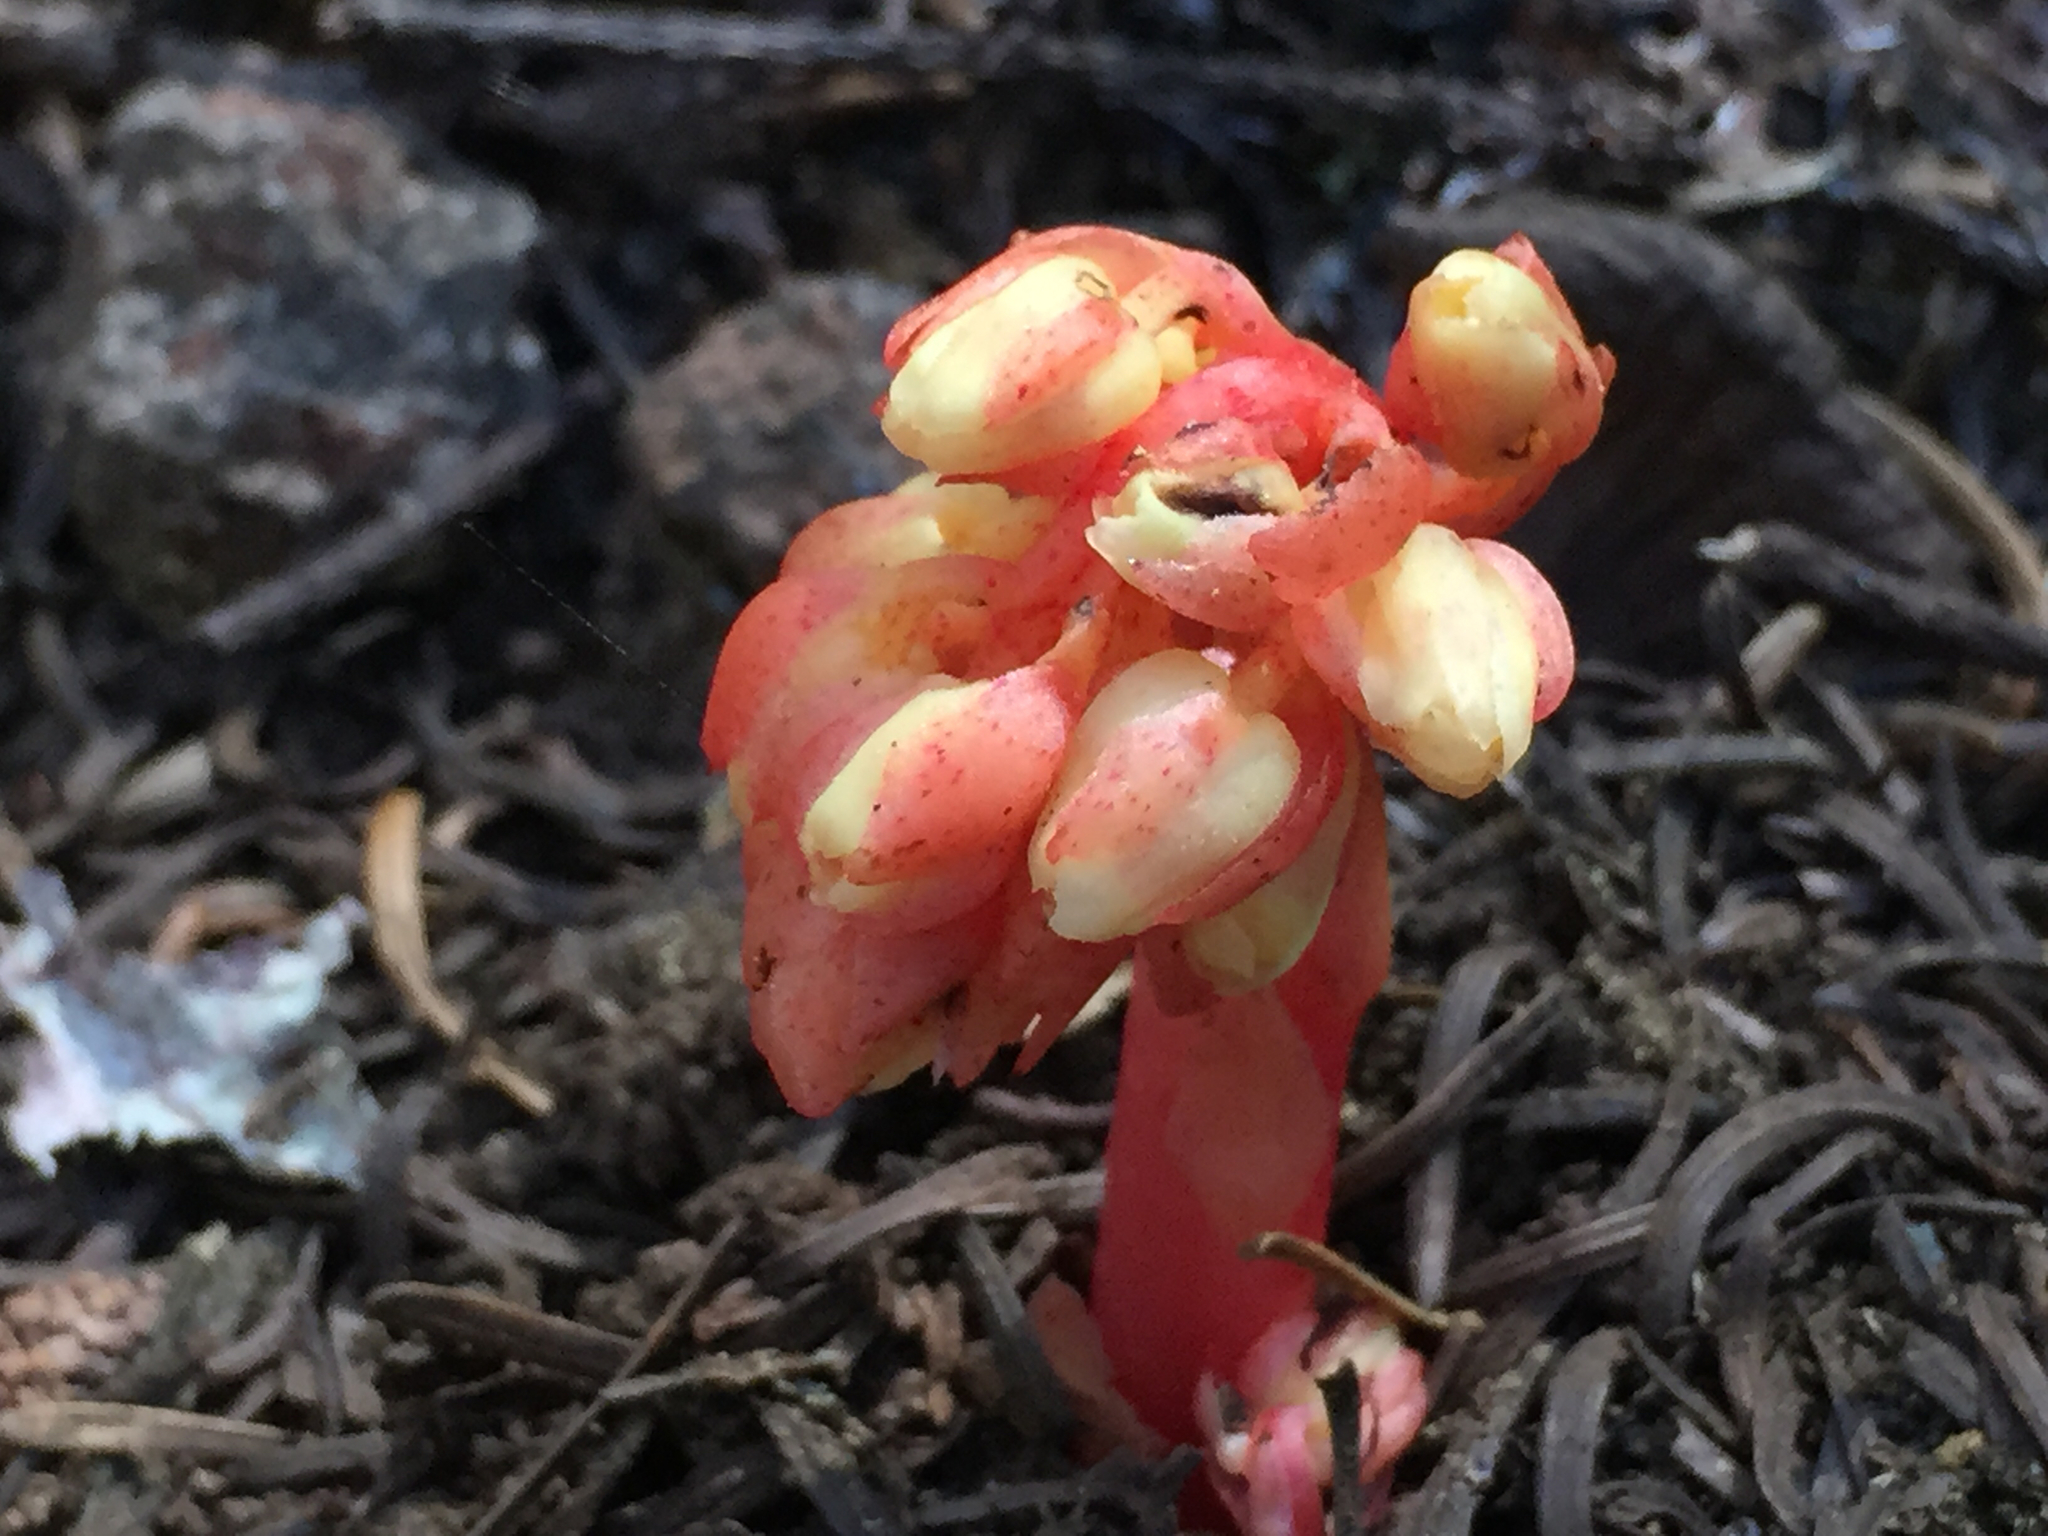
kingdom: Plantae
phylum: Tracheophyta
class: Magnoliopsida
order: Ericales
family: Ericaceae
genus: Hypopitys
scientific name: Hypopitys monotropa
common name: Yellow bird's-nest
